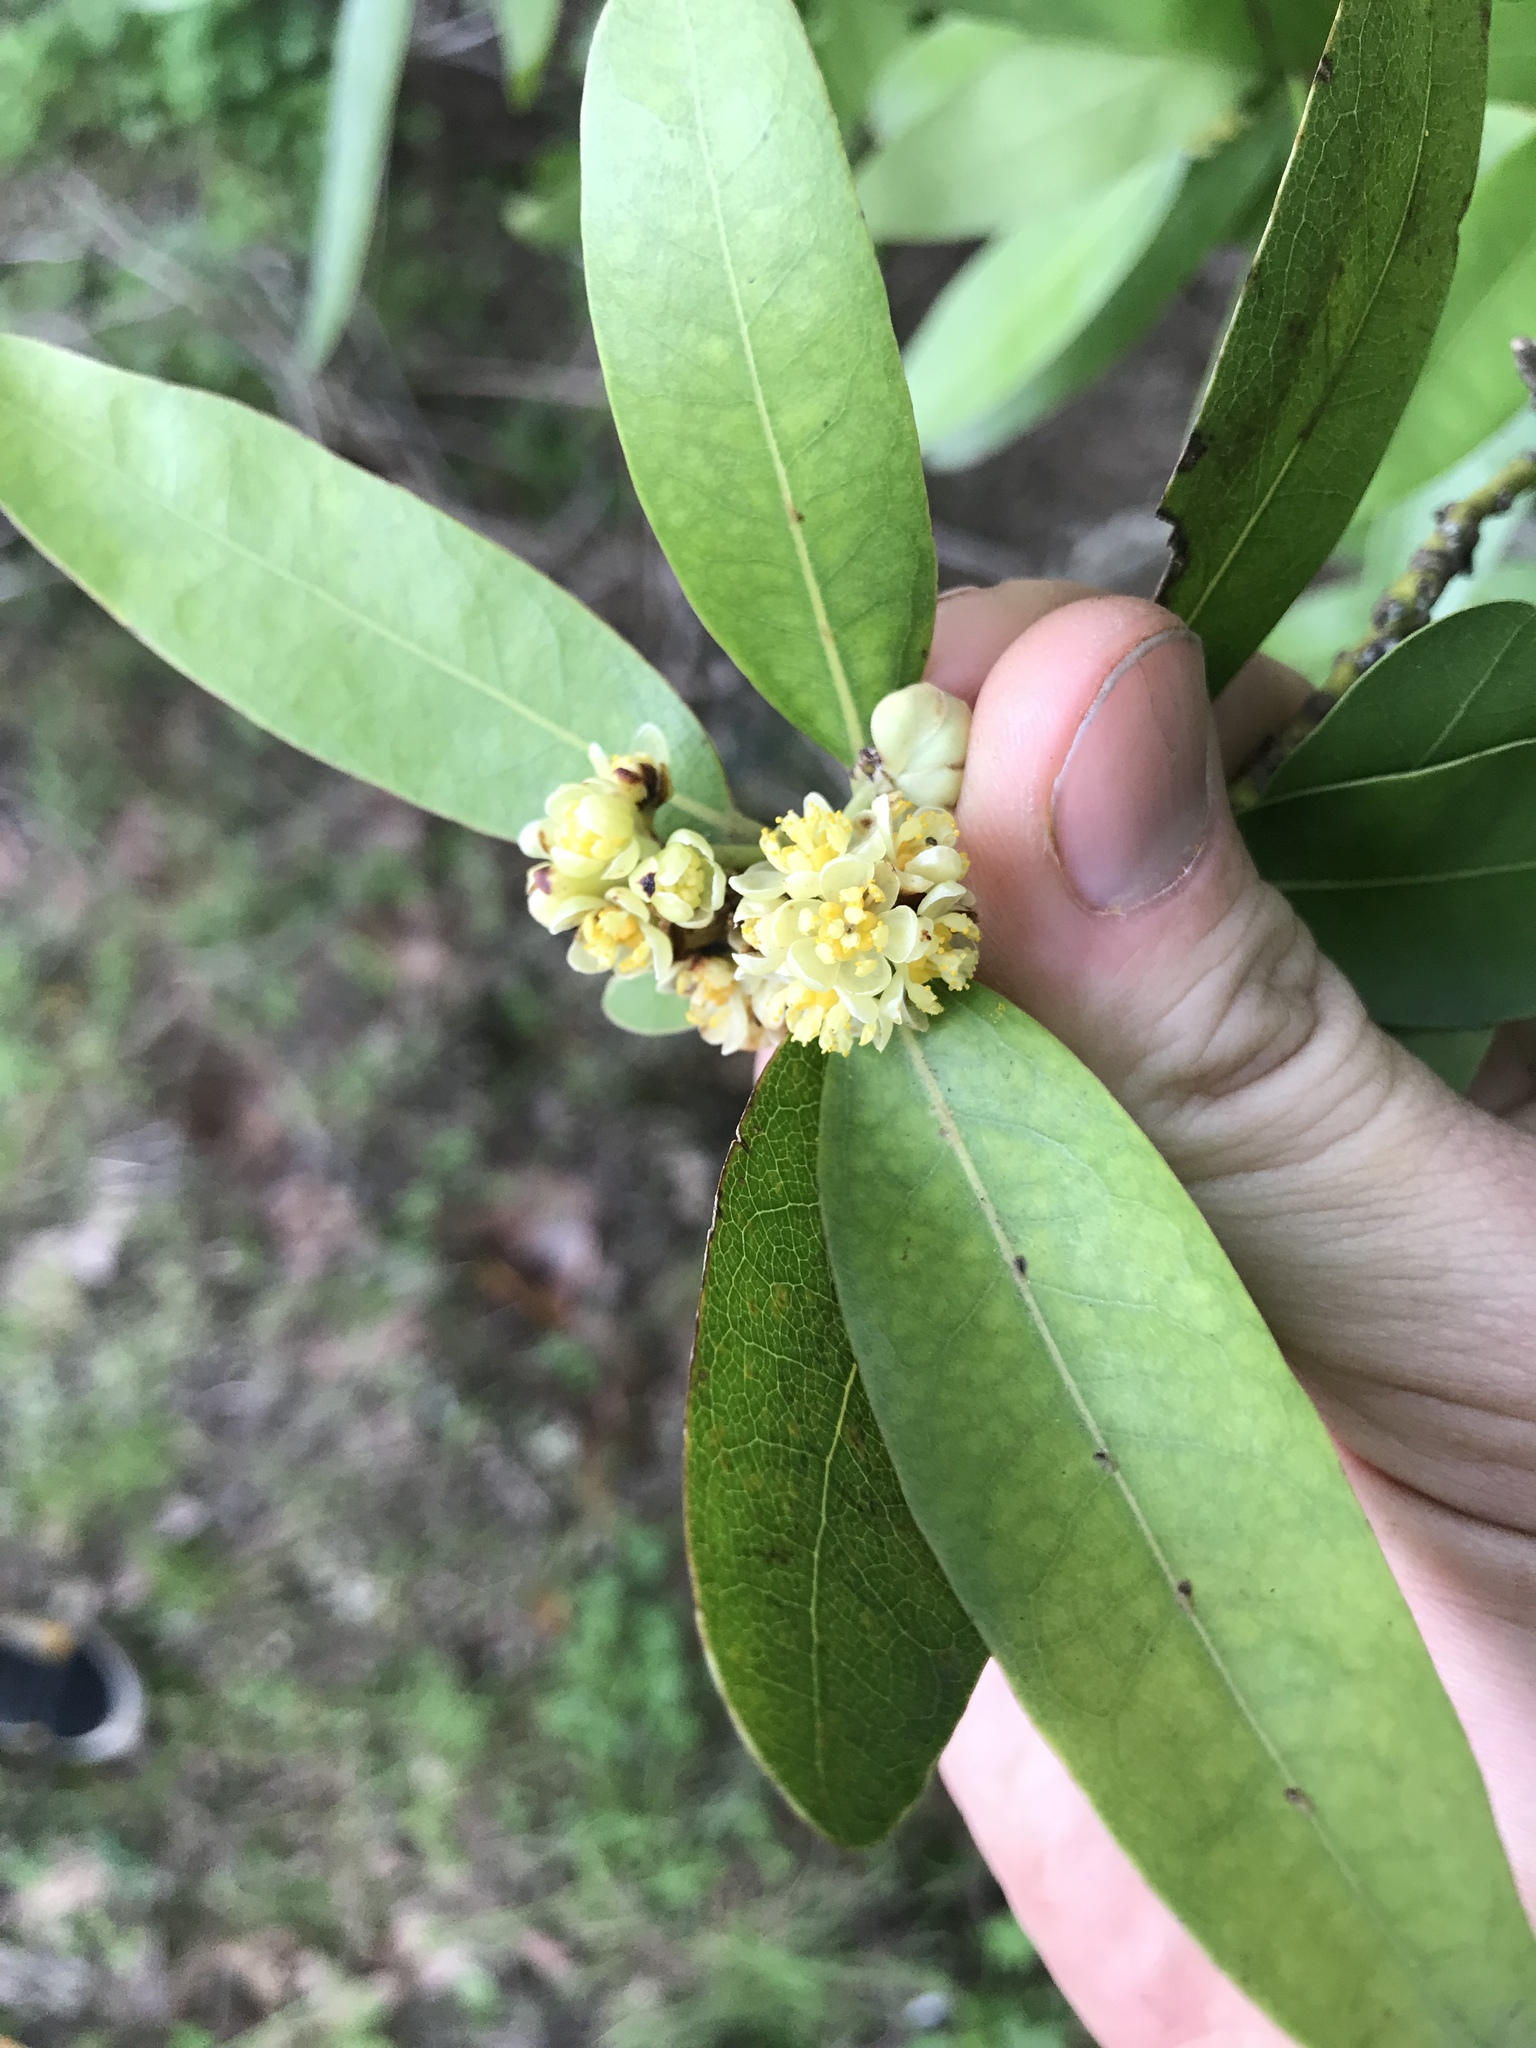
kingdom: Plantae
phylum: Tracheophyta
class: Magnoliopsida
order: Laurales
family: Lauraceae
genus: Umbellularia
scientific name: Umbellularia californica
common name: California bay
